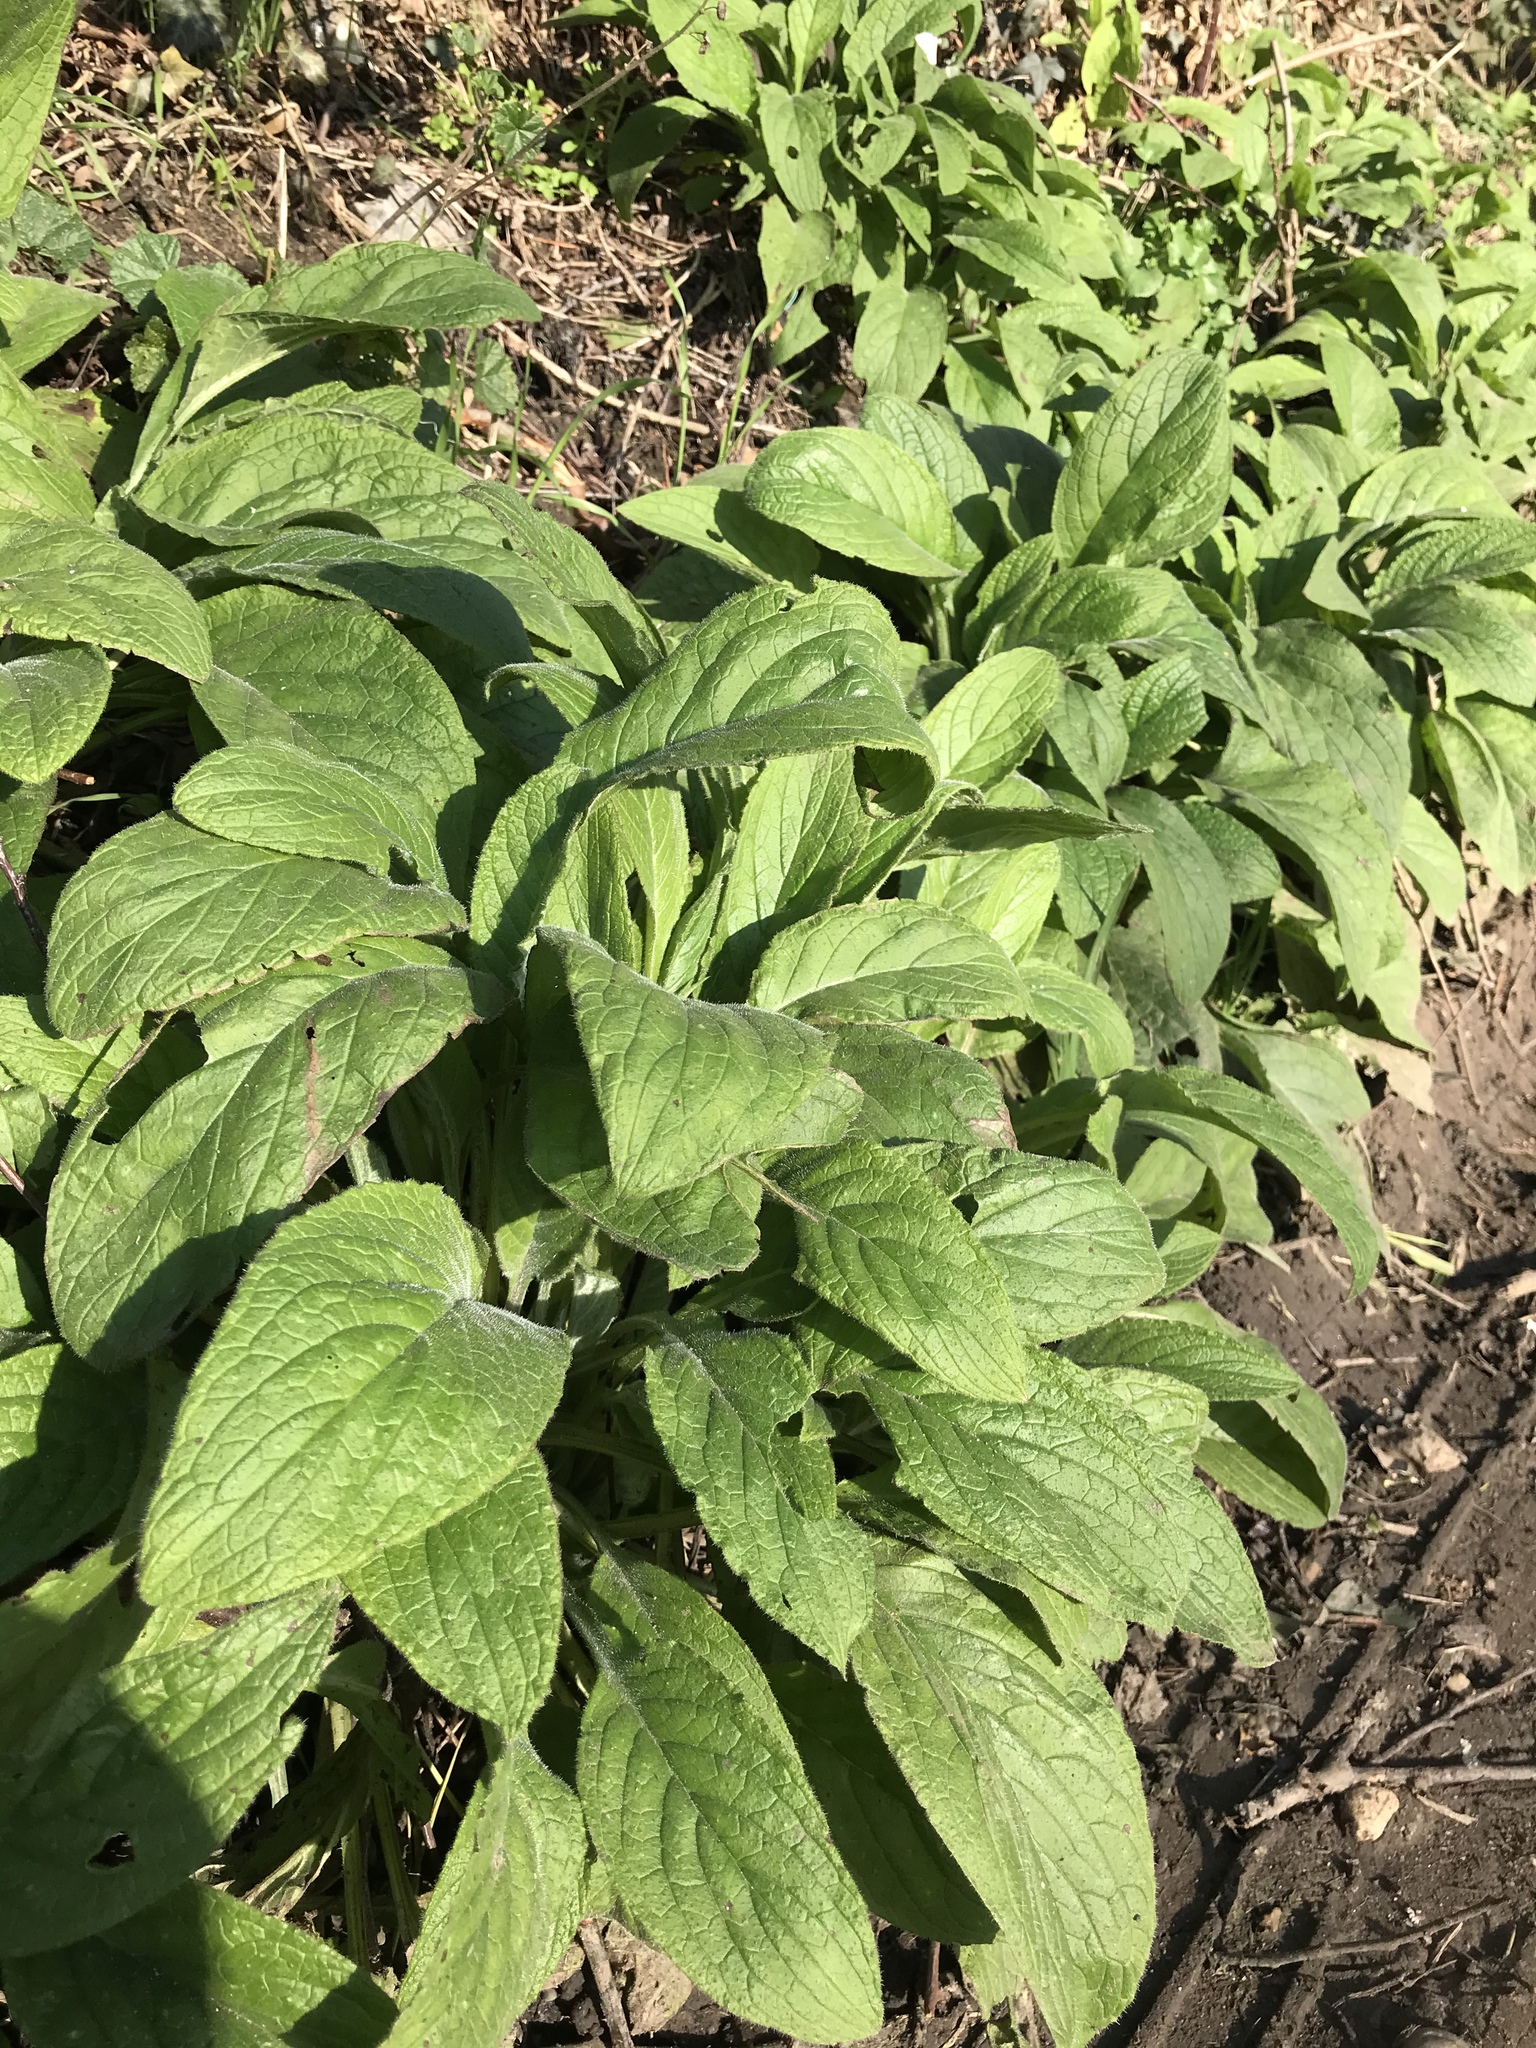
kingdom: Plantae
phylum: Tracheophyta
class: Magnoliopsida
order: Boraginales
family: Boraginaceae
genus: Pentaglottis
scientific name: Pentaglottis sempervirens
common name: Green alkanet
